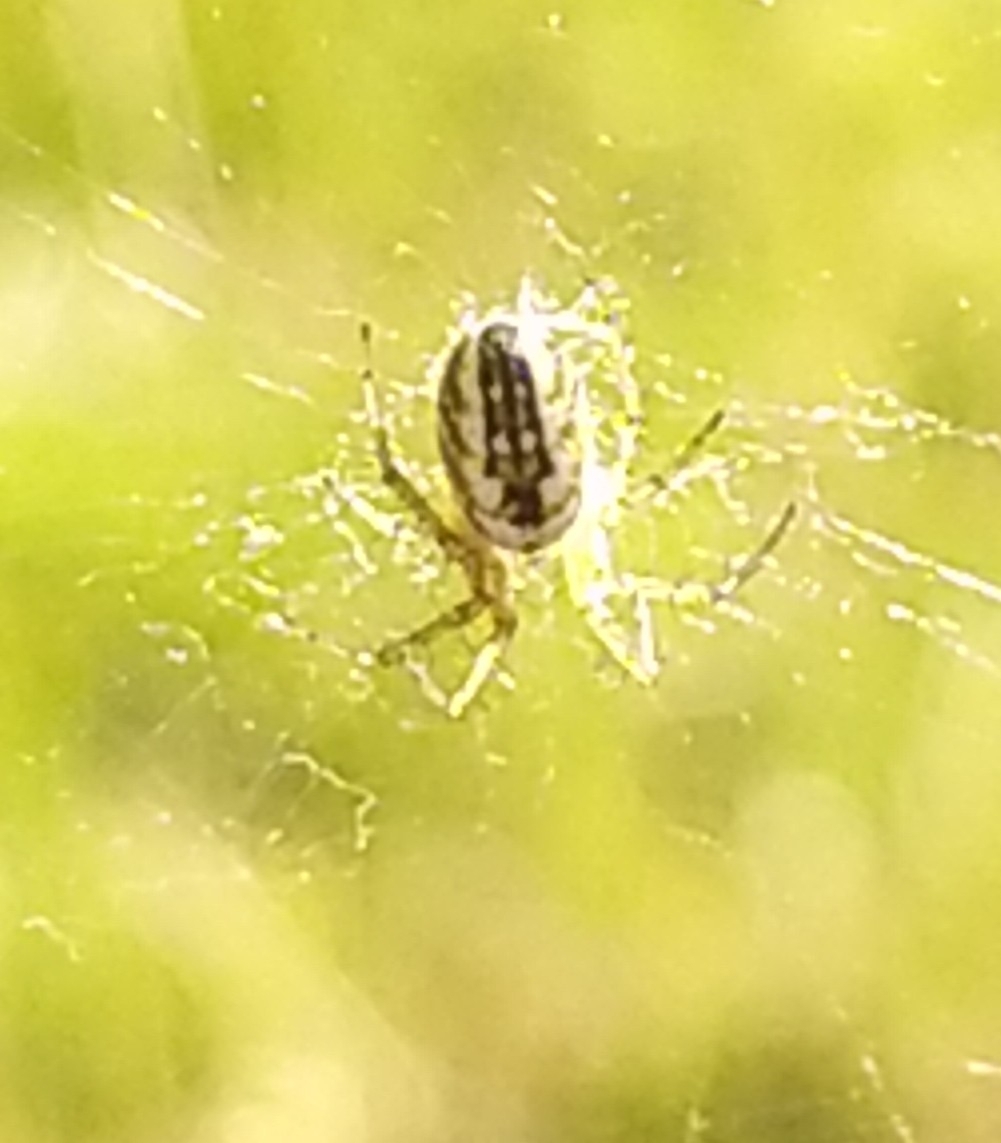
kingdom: Animalia
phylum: Arthropoda
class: Arachnida
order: Araneae
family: Araneidae
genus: Mangora
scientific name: Mangora acalypha
